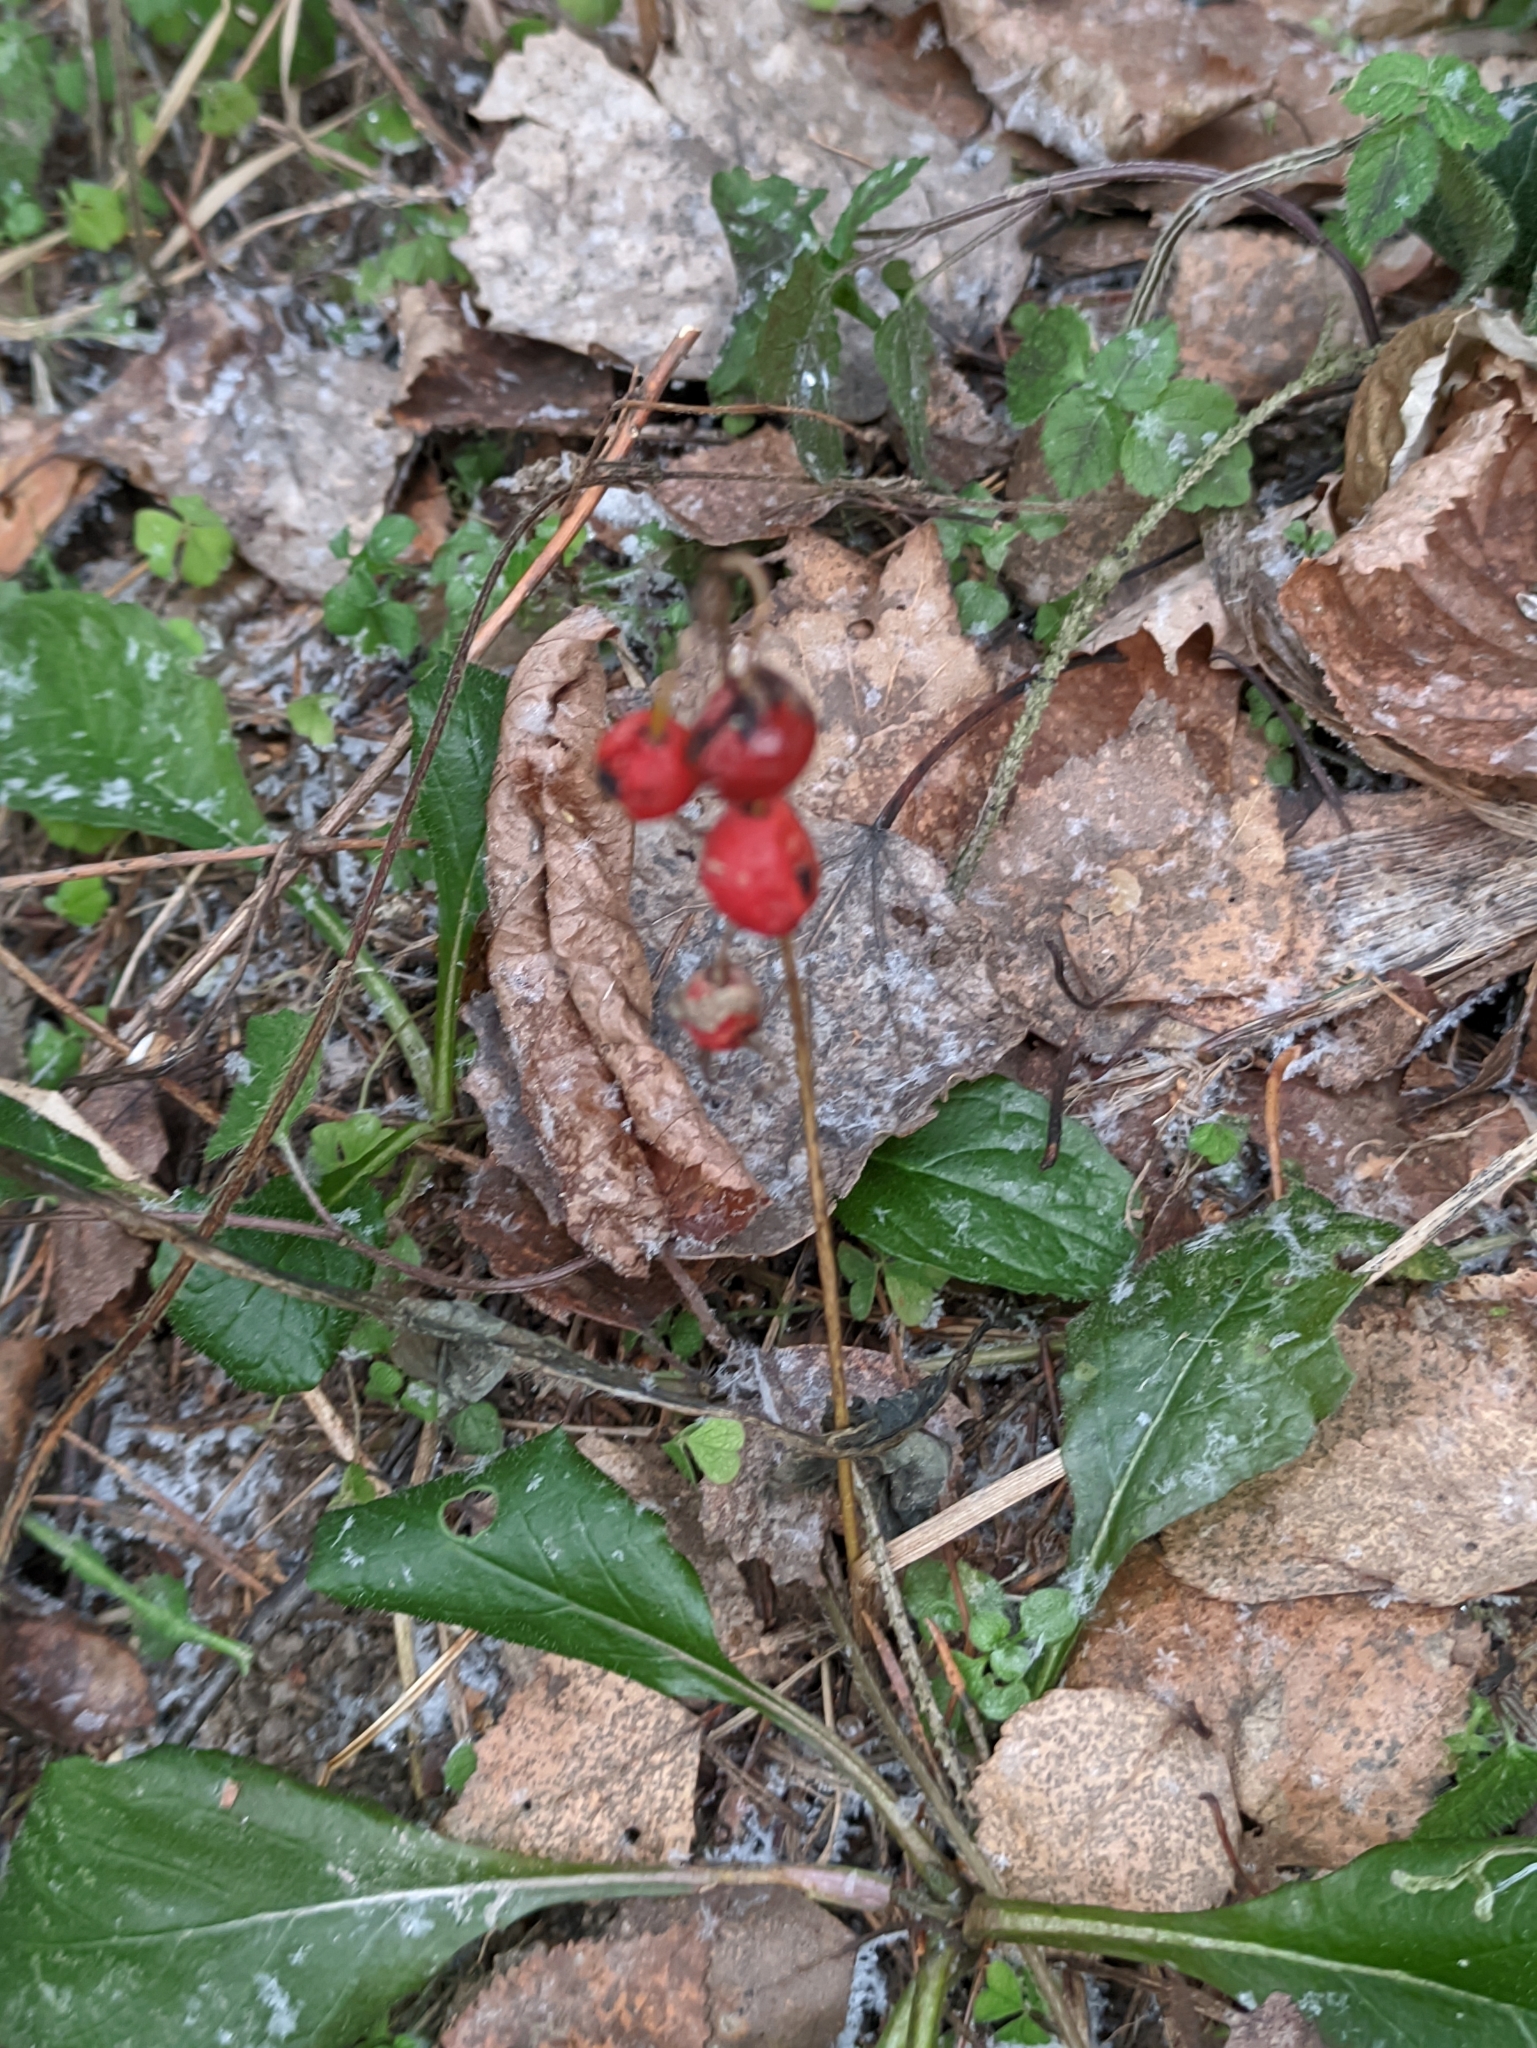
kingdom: Plantae
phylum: Tracheophyta
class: Liliopsida
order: Asparagales
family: Asparagaceae
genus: Convallaria
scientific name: Convallaria majalis
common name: Lily-of-the-valley
